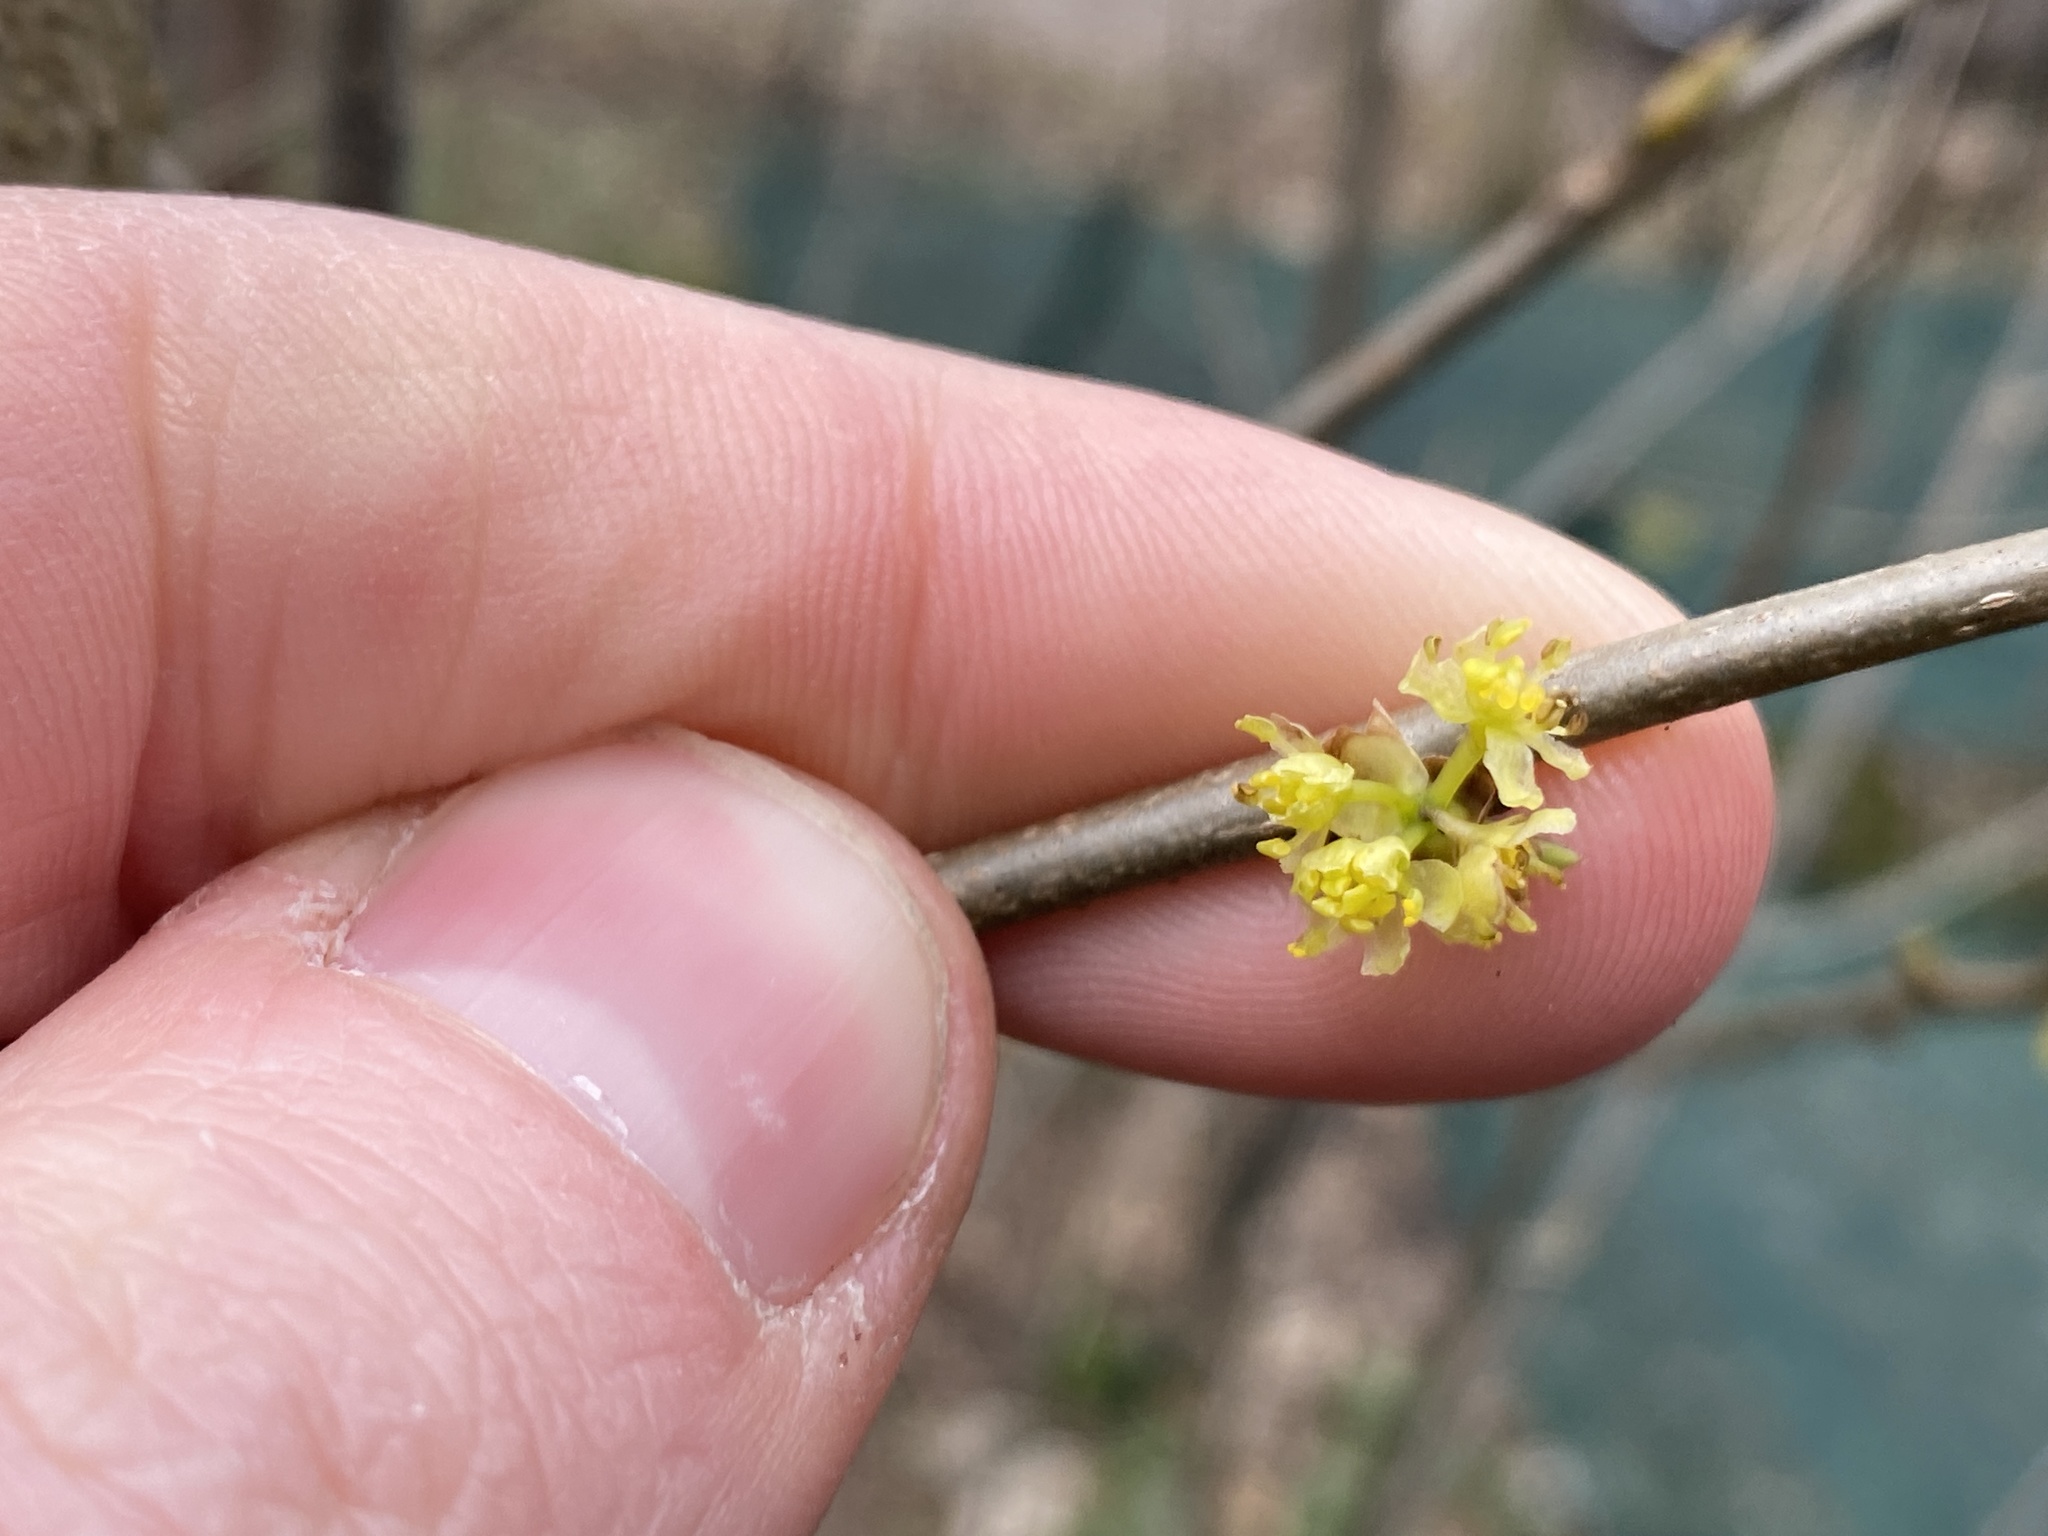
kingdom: Plantae
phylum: Tracheophyta
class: Magnoliopsida
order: Laurales
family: Lauraceae
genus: Lindera
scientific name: Lindera benzoin
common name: Spicebush
